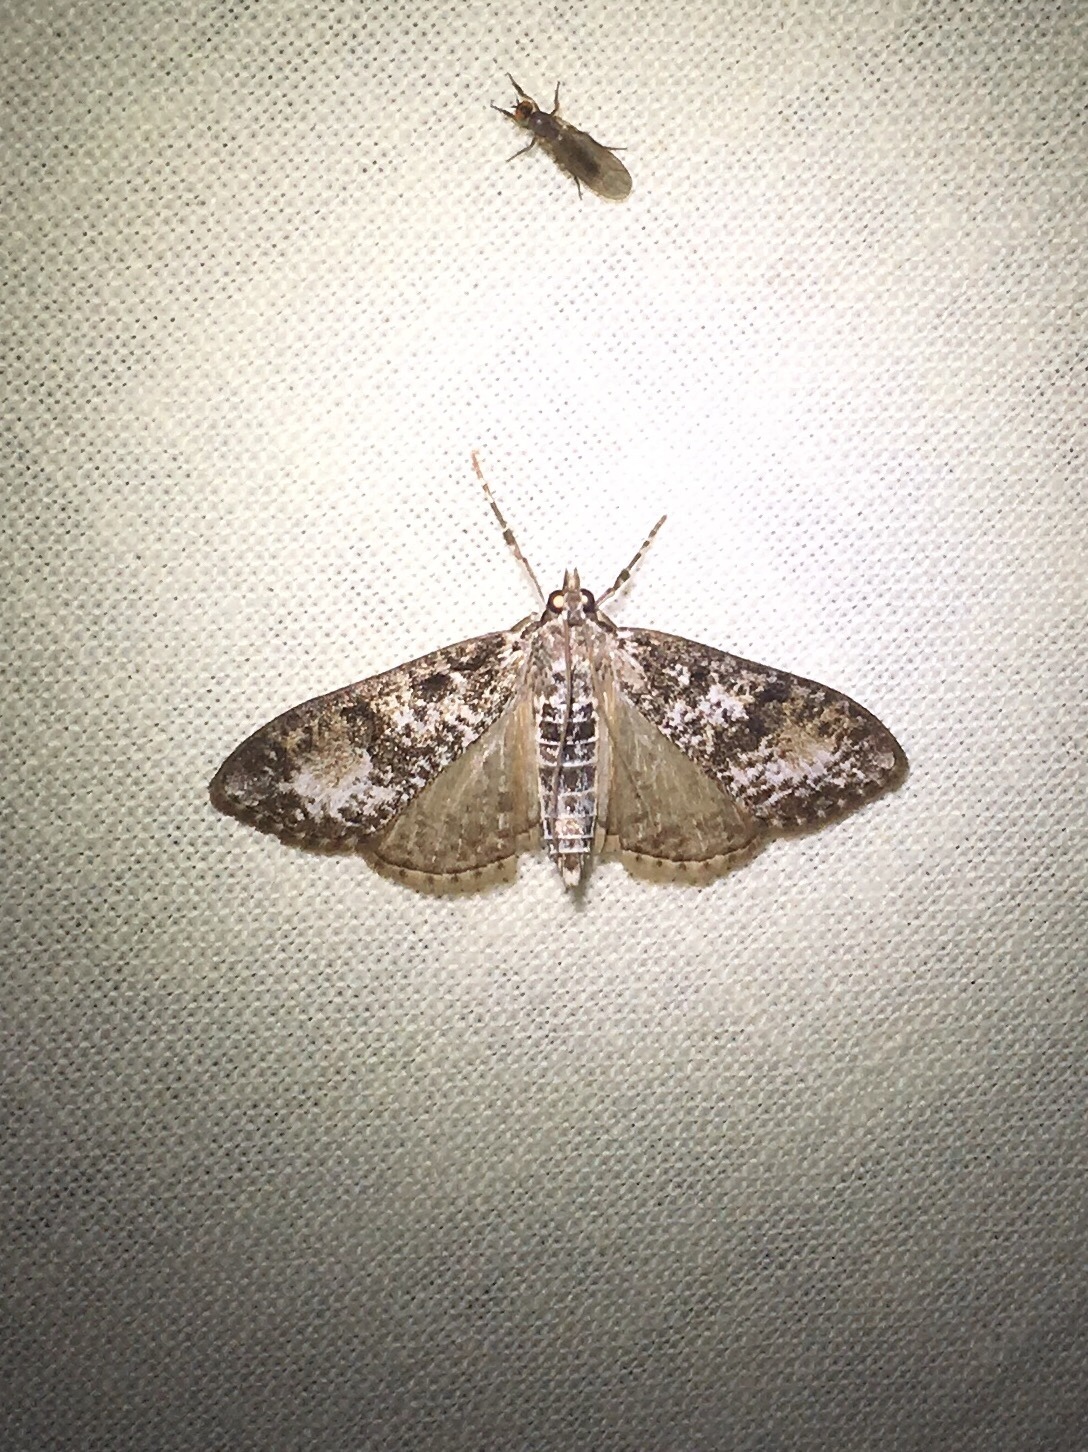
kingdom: Animalia
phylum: Arthropoda
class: Insecta
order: Lepidoptera
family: Crambidae
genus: Palpita
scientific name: Palpita magniferalis
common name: Splendid palpita moth
